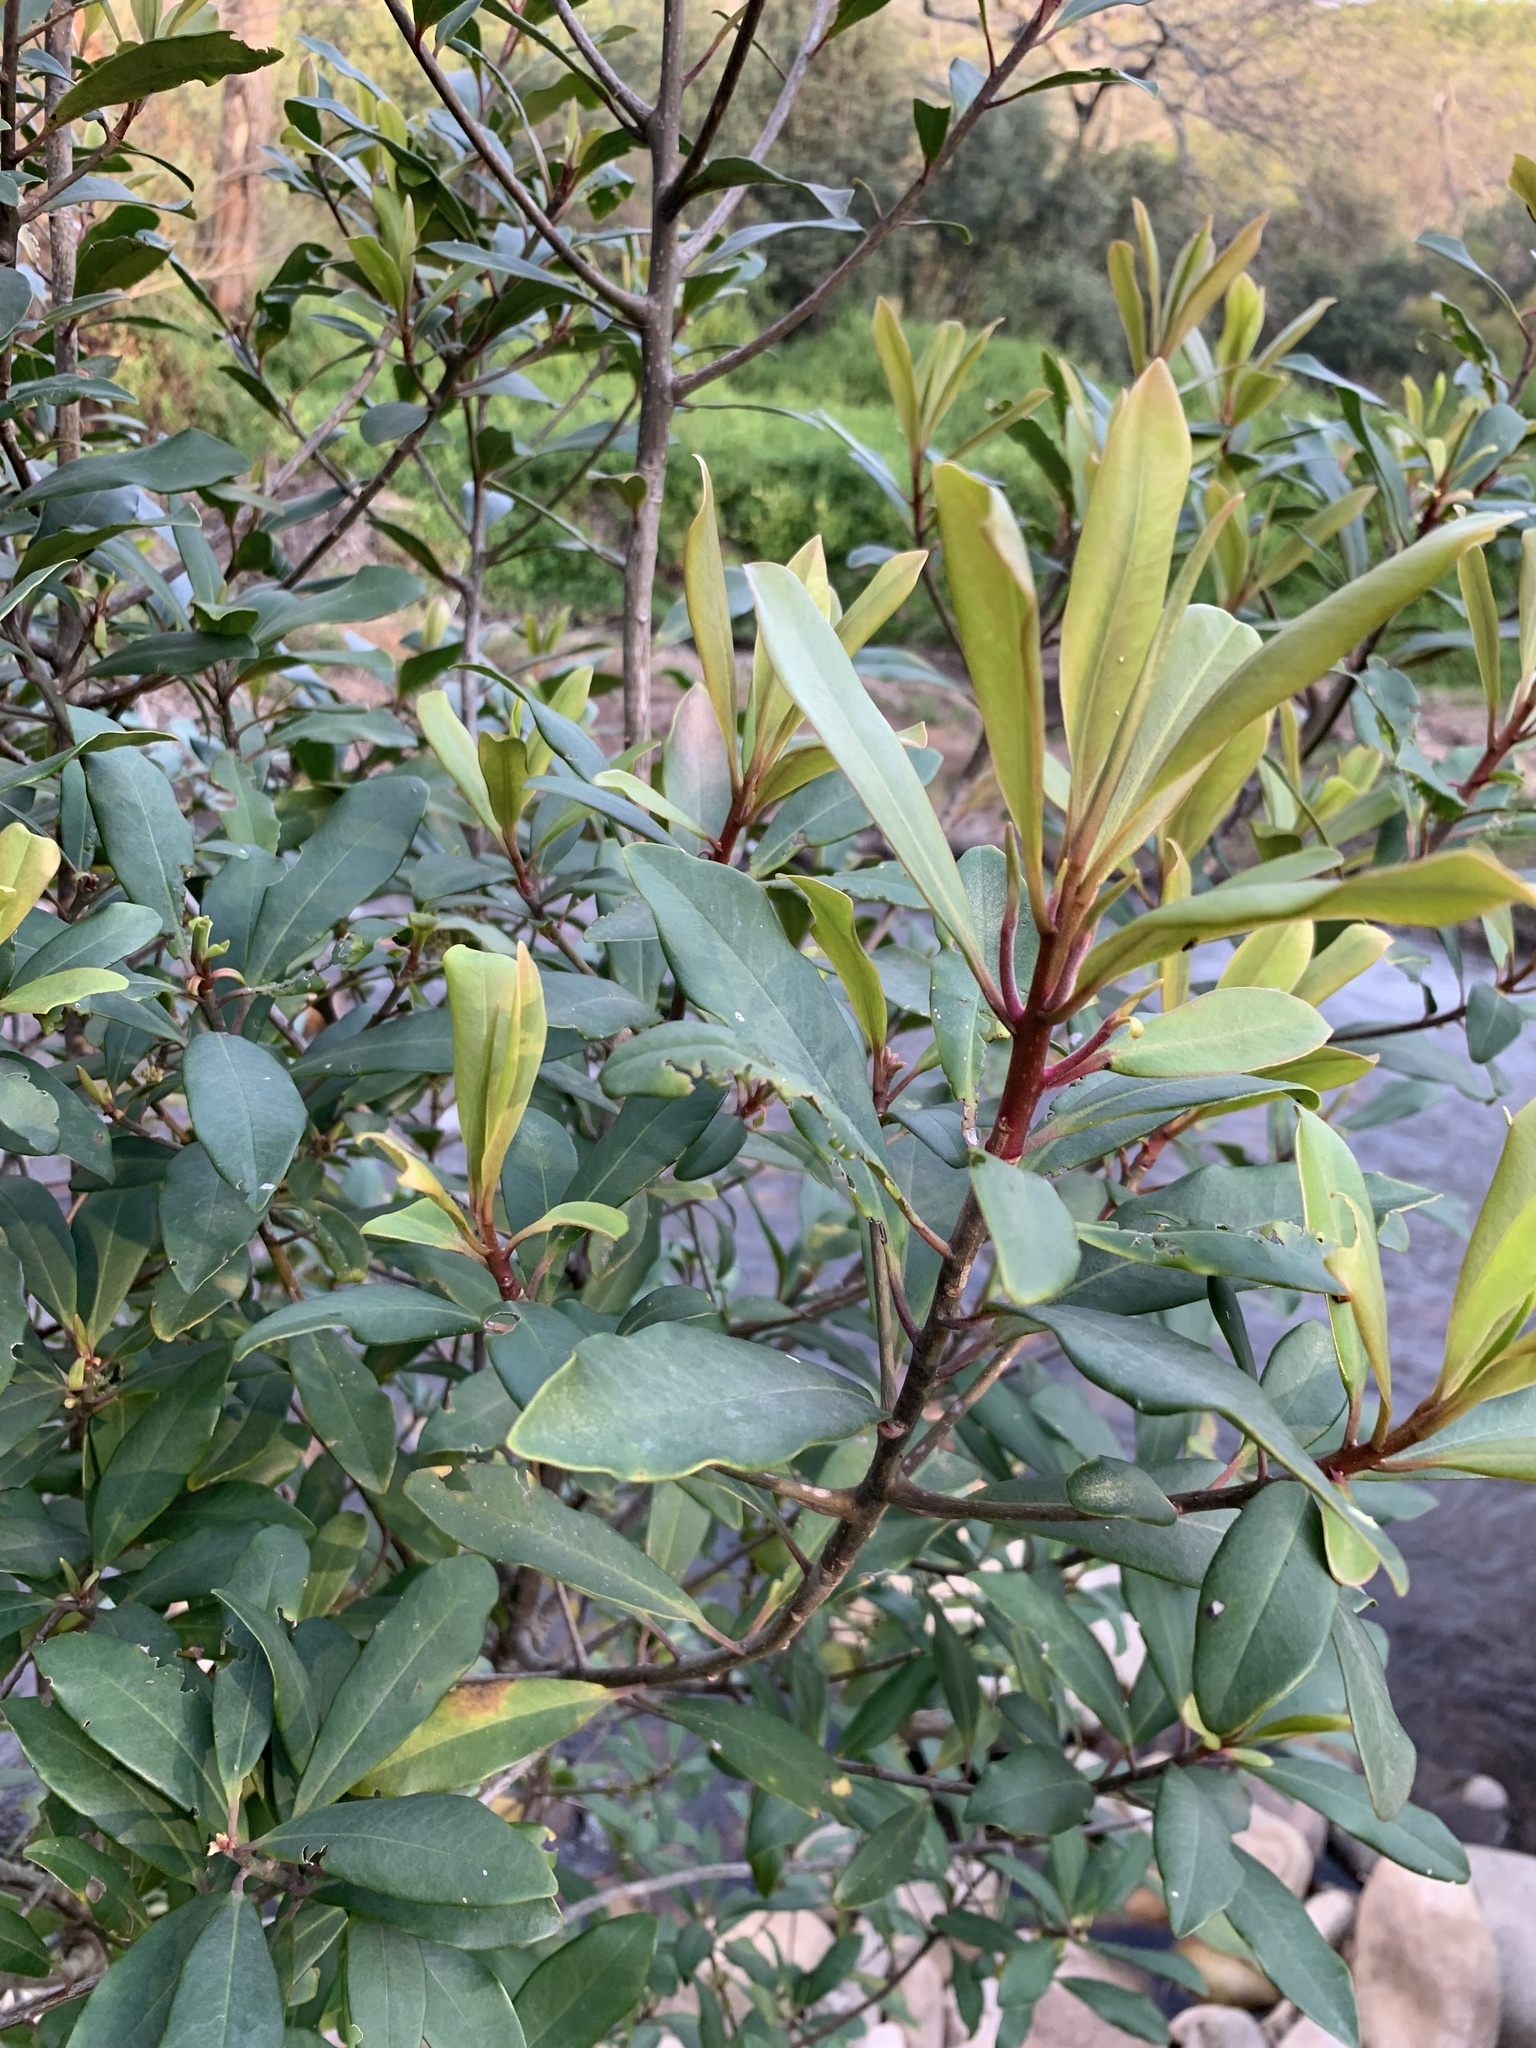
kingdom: Plantae
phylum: Tracheophyta
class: Magnoliopsida
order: Ericales
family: Primulaceae
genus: Myrsine
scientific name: Myrsine melanophloeos
